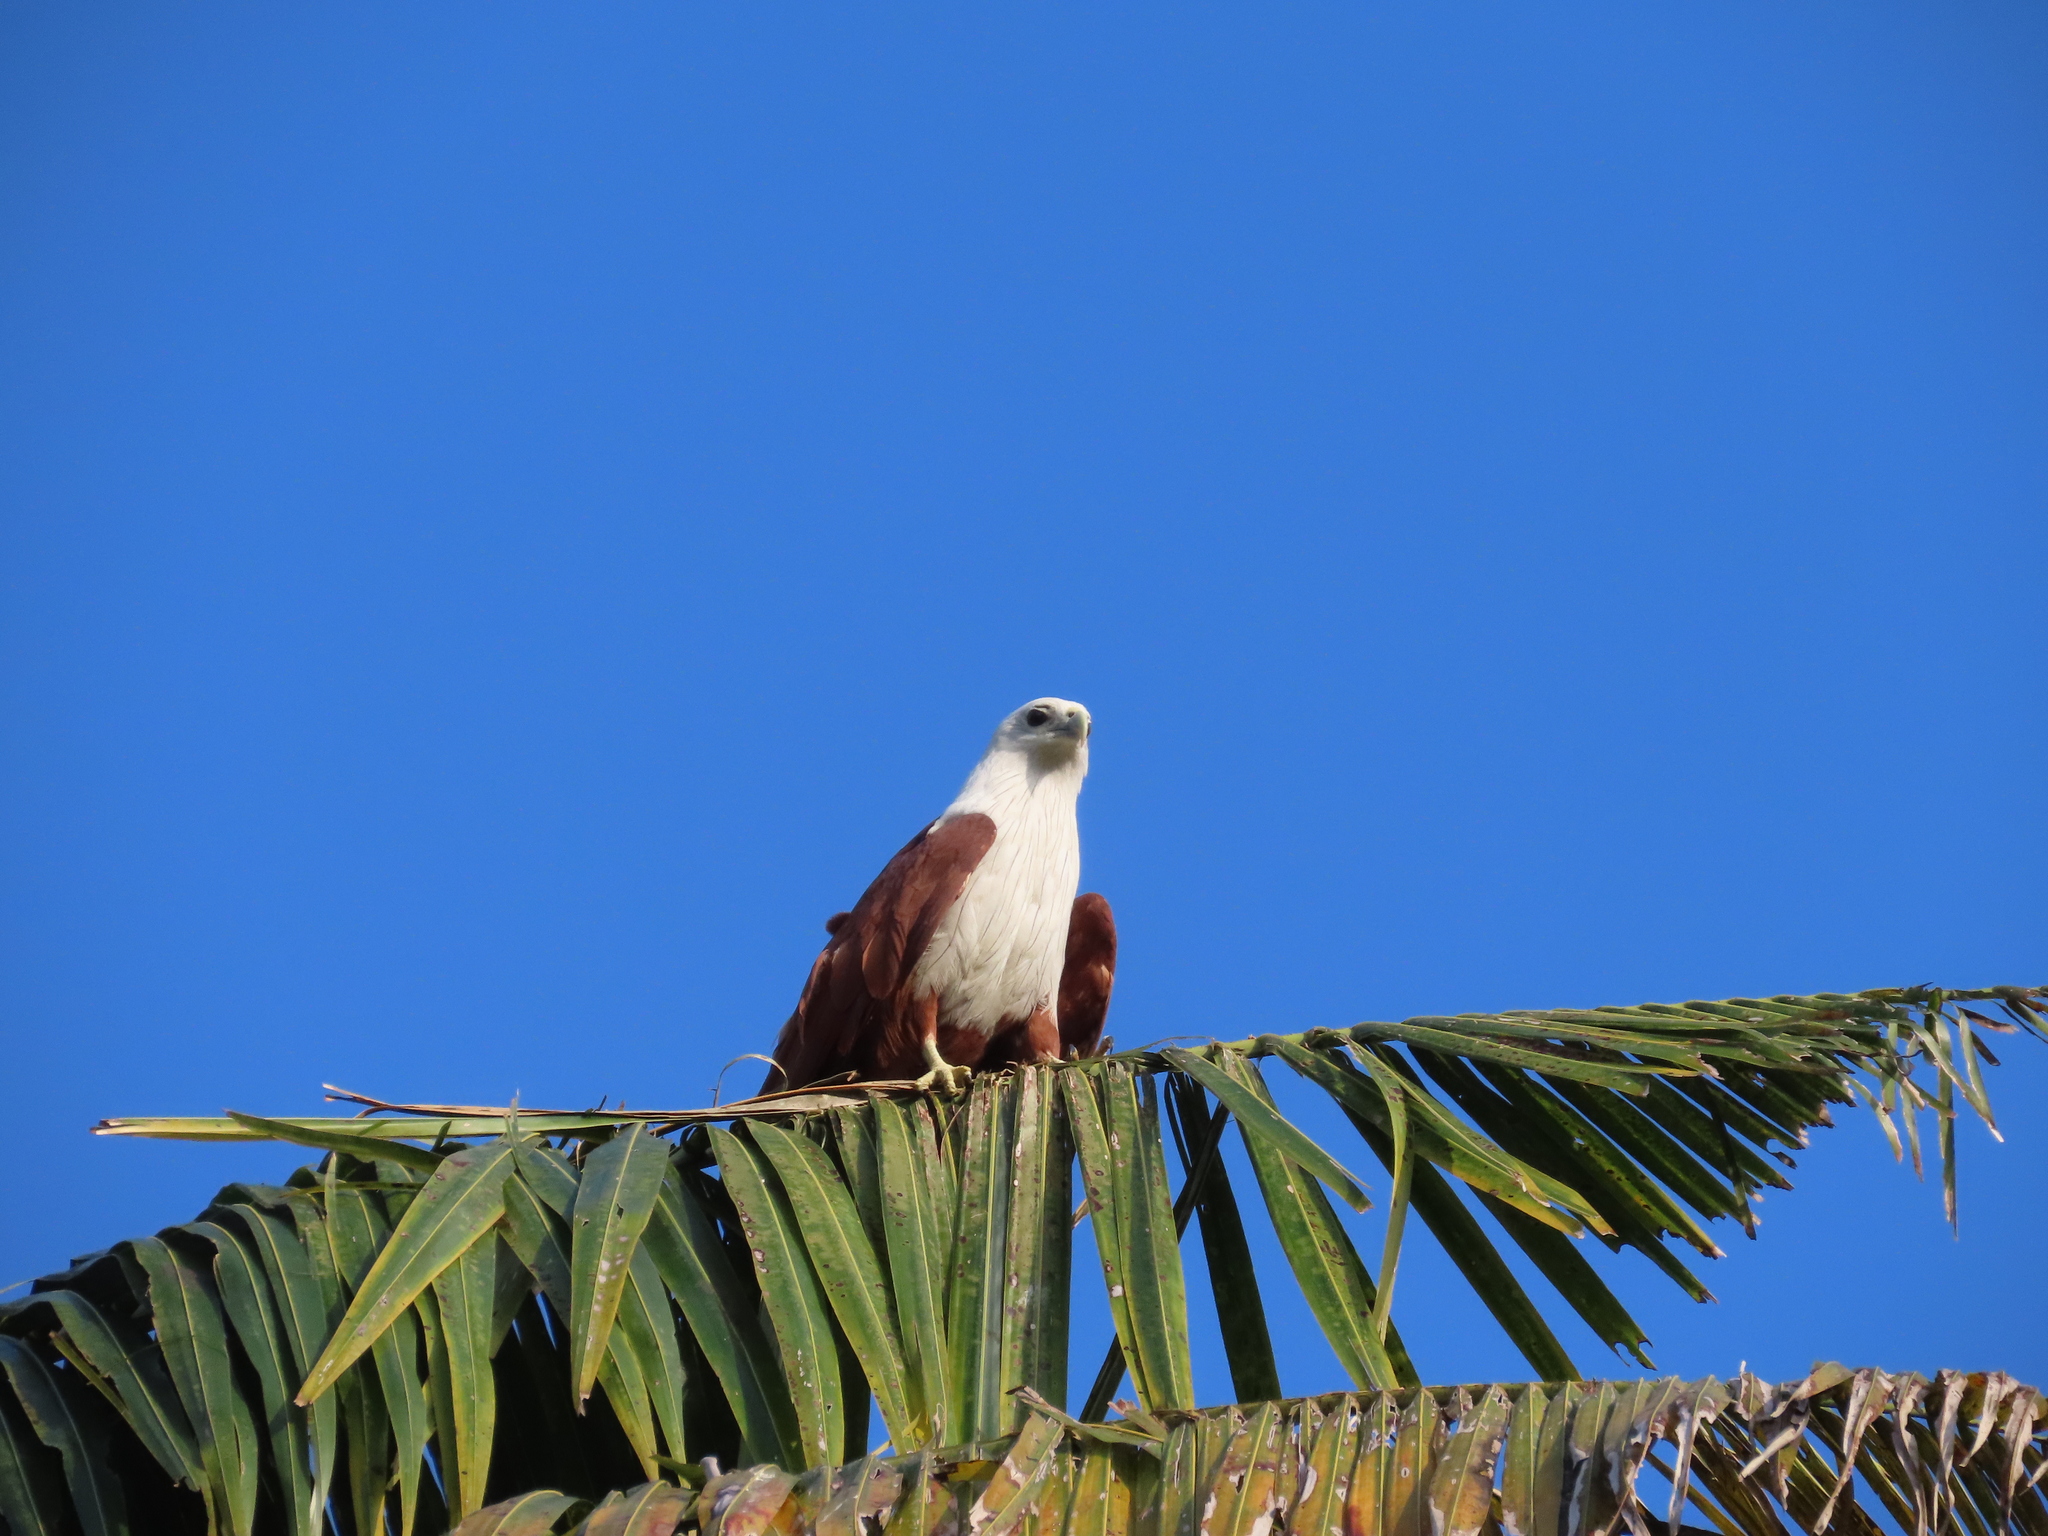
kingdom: Animalia
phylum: Chordata
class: Aves
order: Accipitriformes
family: Accipitridae
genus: Haliastur
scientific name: Haliastur indus
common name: Brahminy kite
